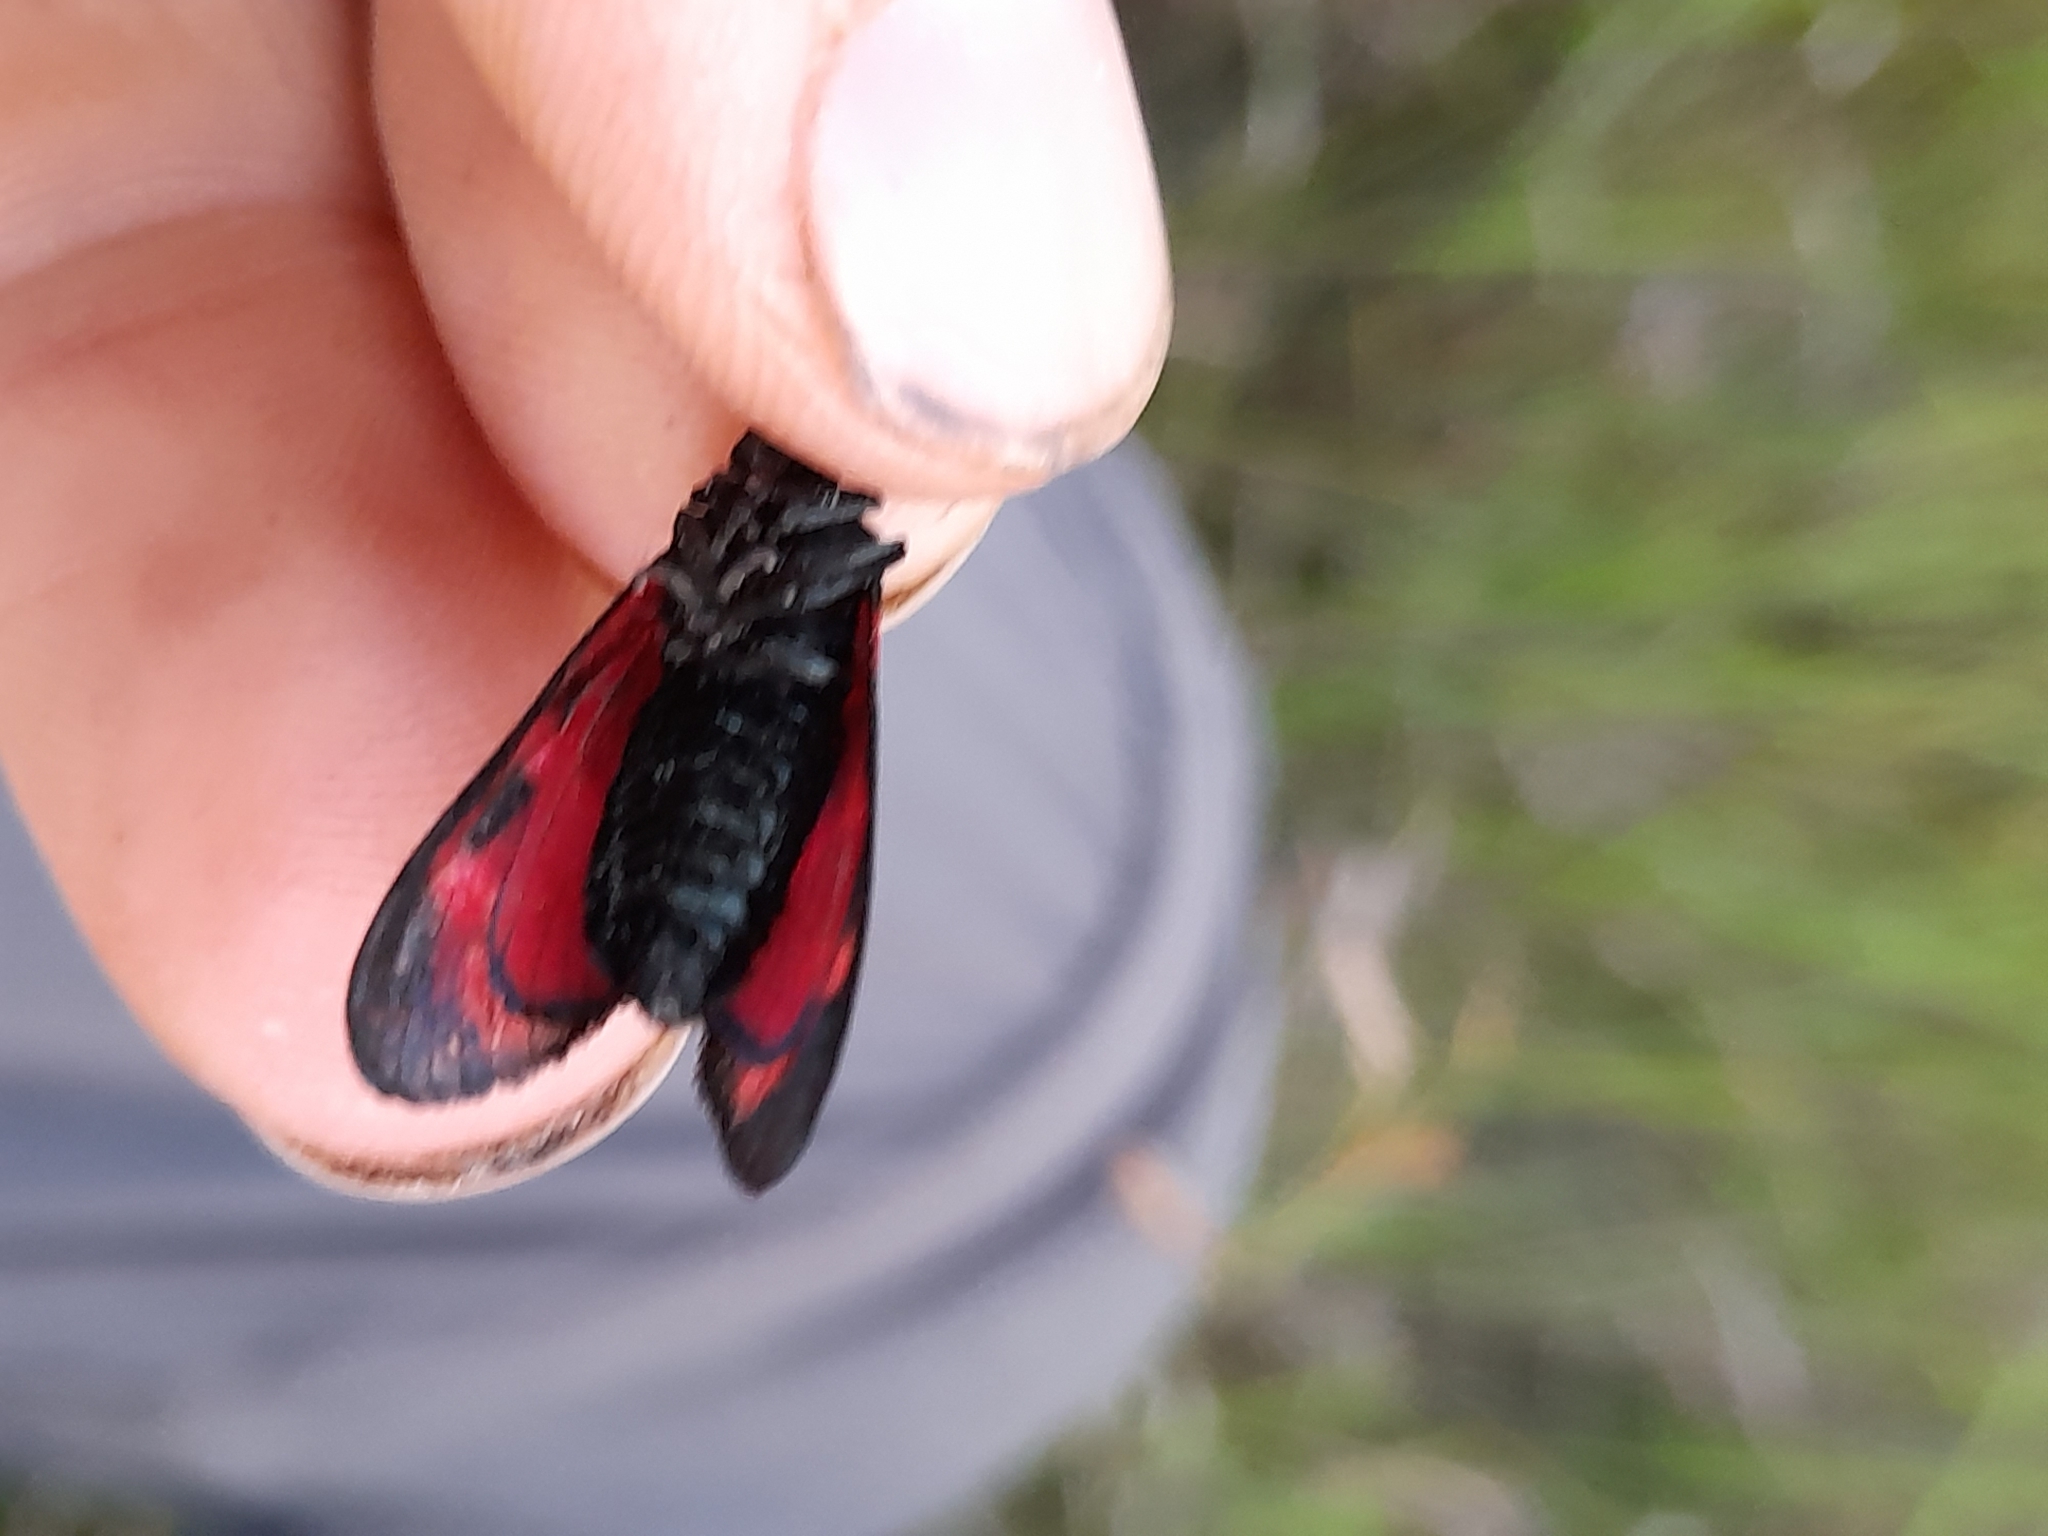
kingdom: Animalia
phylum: Arthropoda
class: Insecta
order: Lepidoptera
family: Zygaenidae
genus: Zygaena
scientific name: Zygaena filipendulae
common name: Six-spot burnet
